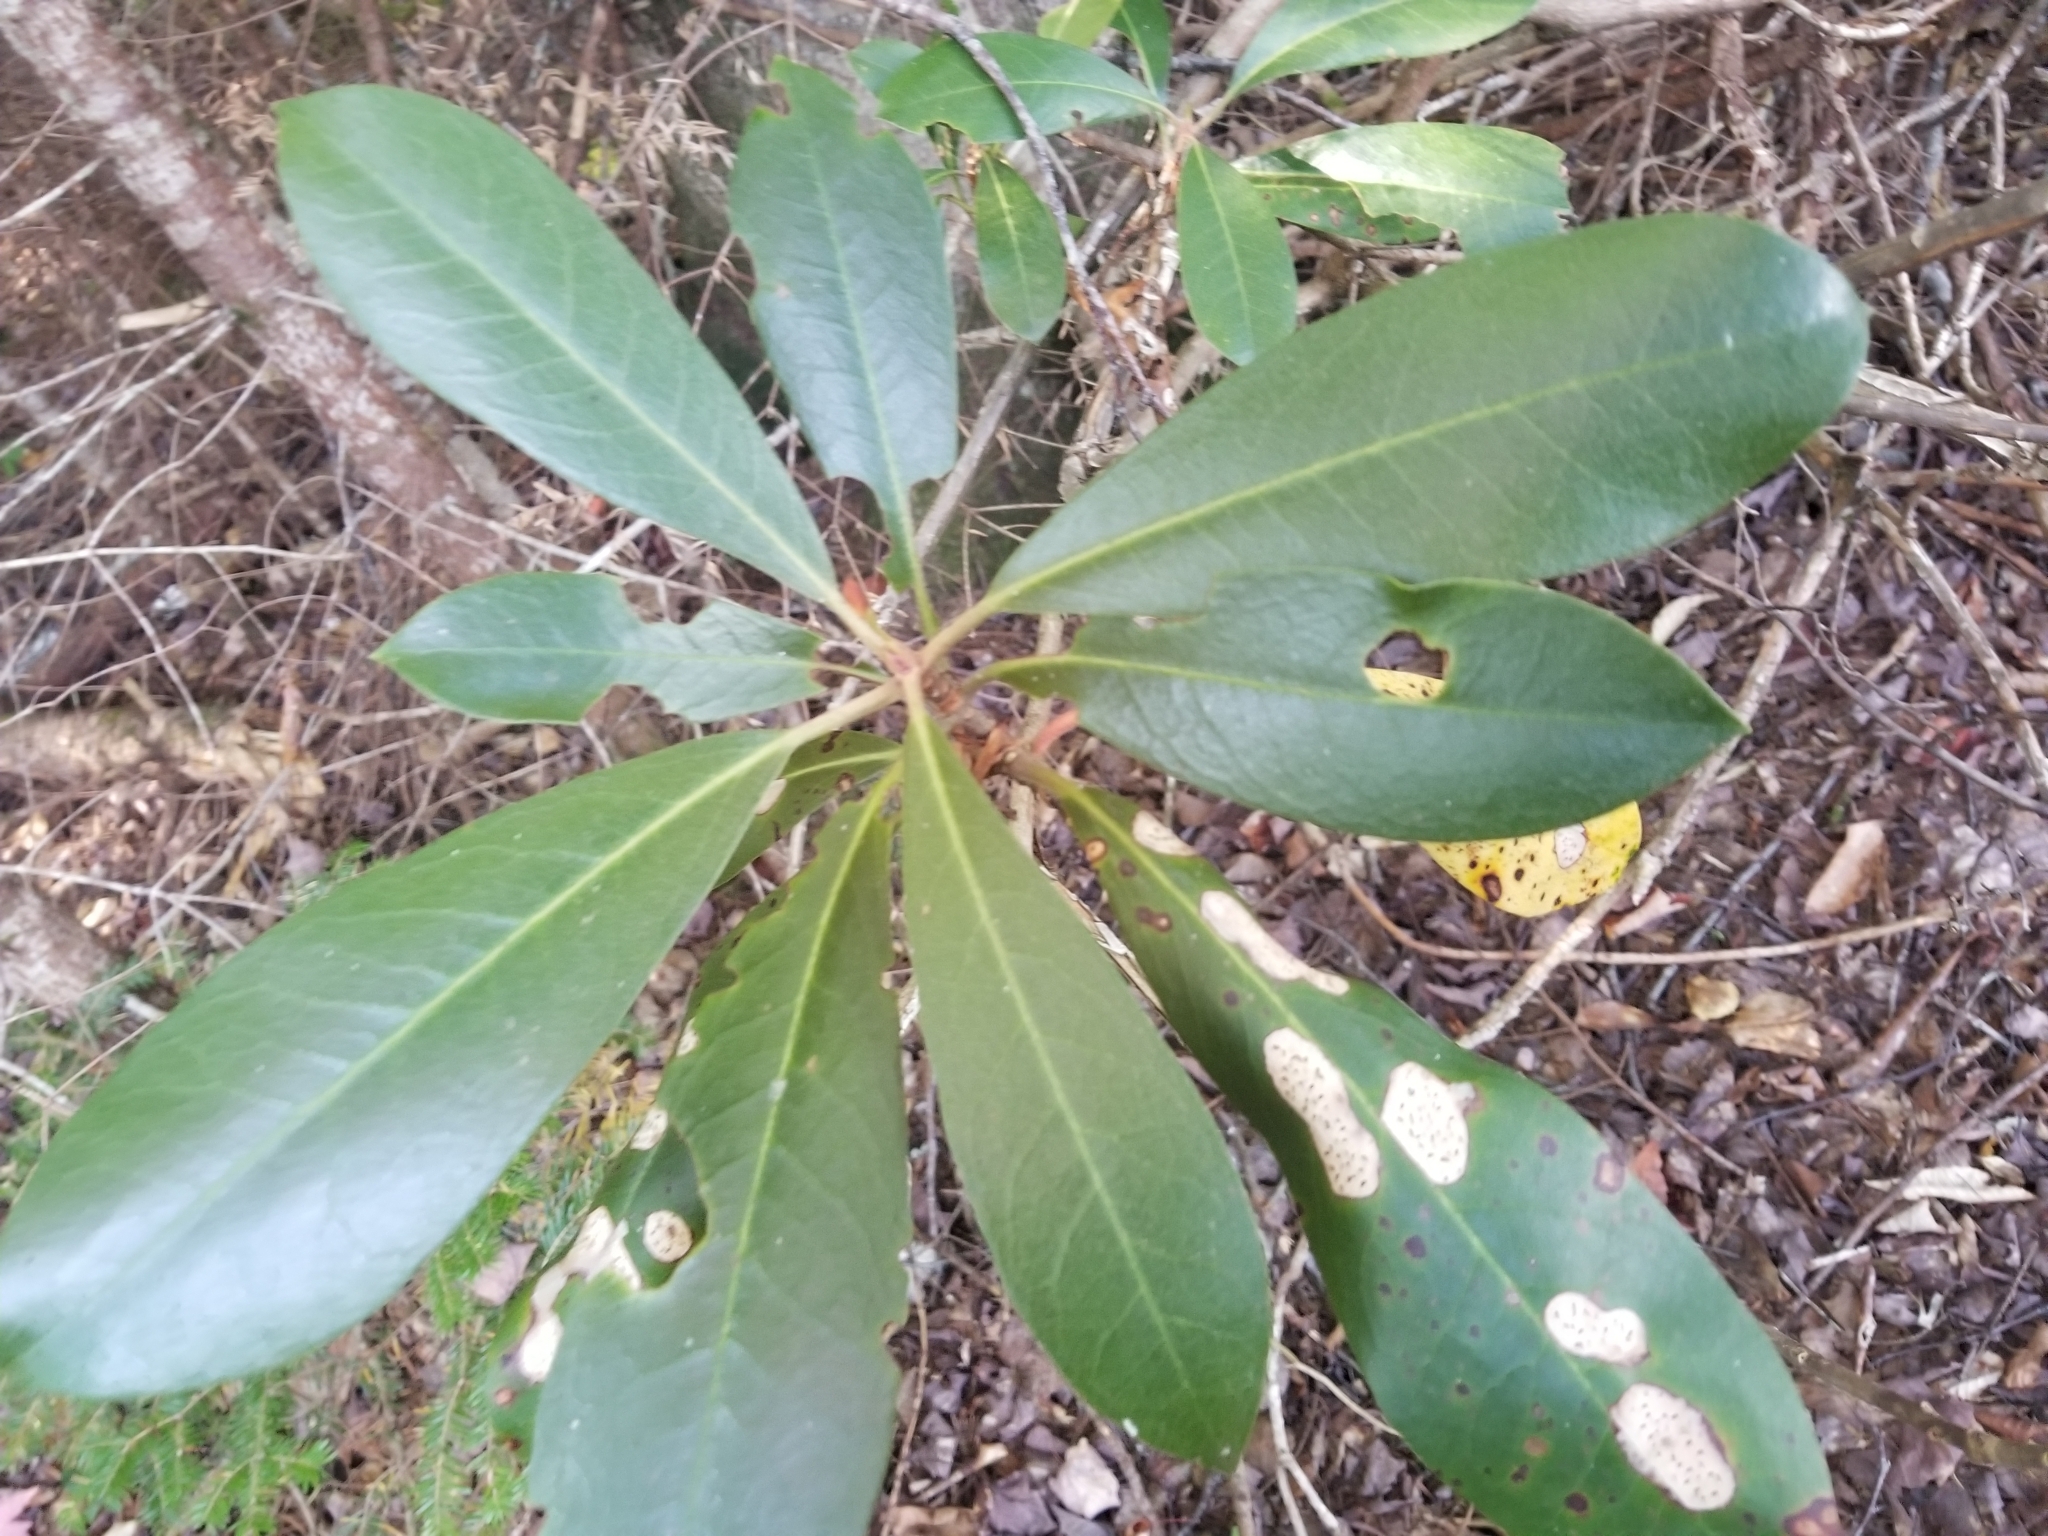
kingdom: Plantae
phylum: Tracheophyta
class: Magnoliopsida
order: Ericales
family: Ericaceae
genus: Rhododendron
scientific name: Rhododendron maximum
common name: Great rhododendron
